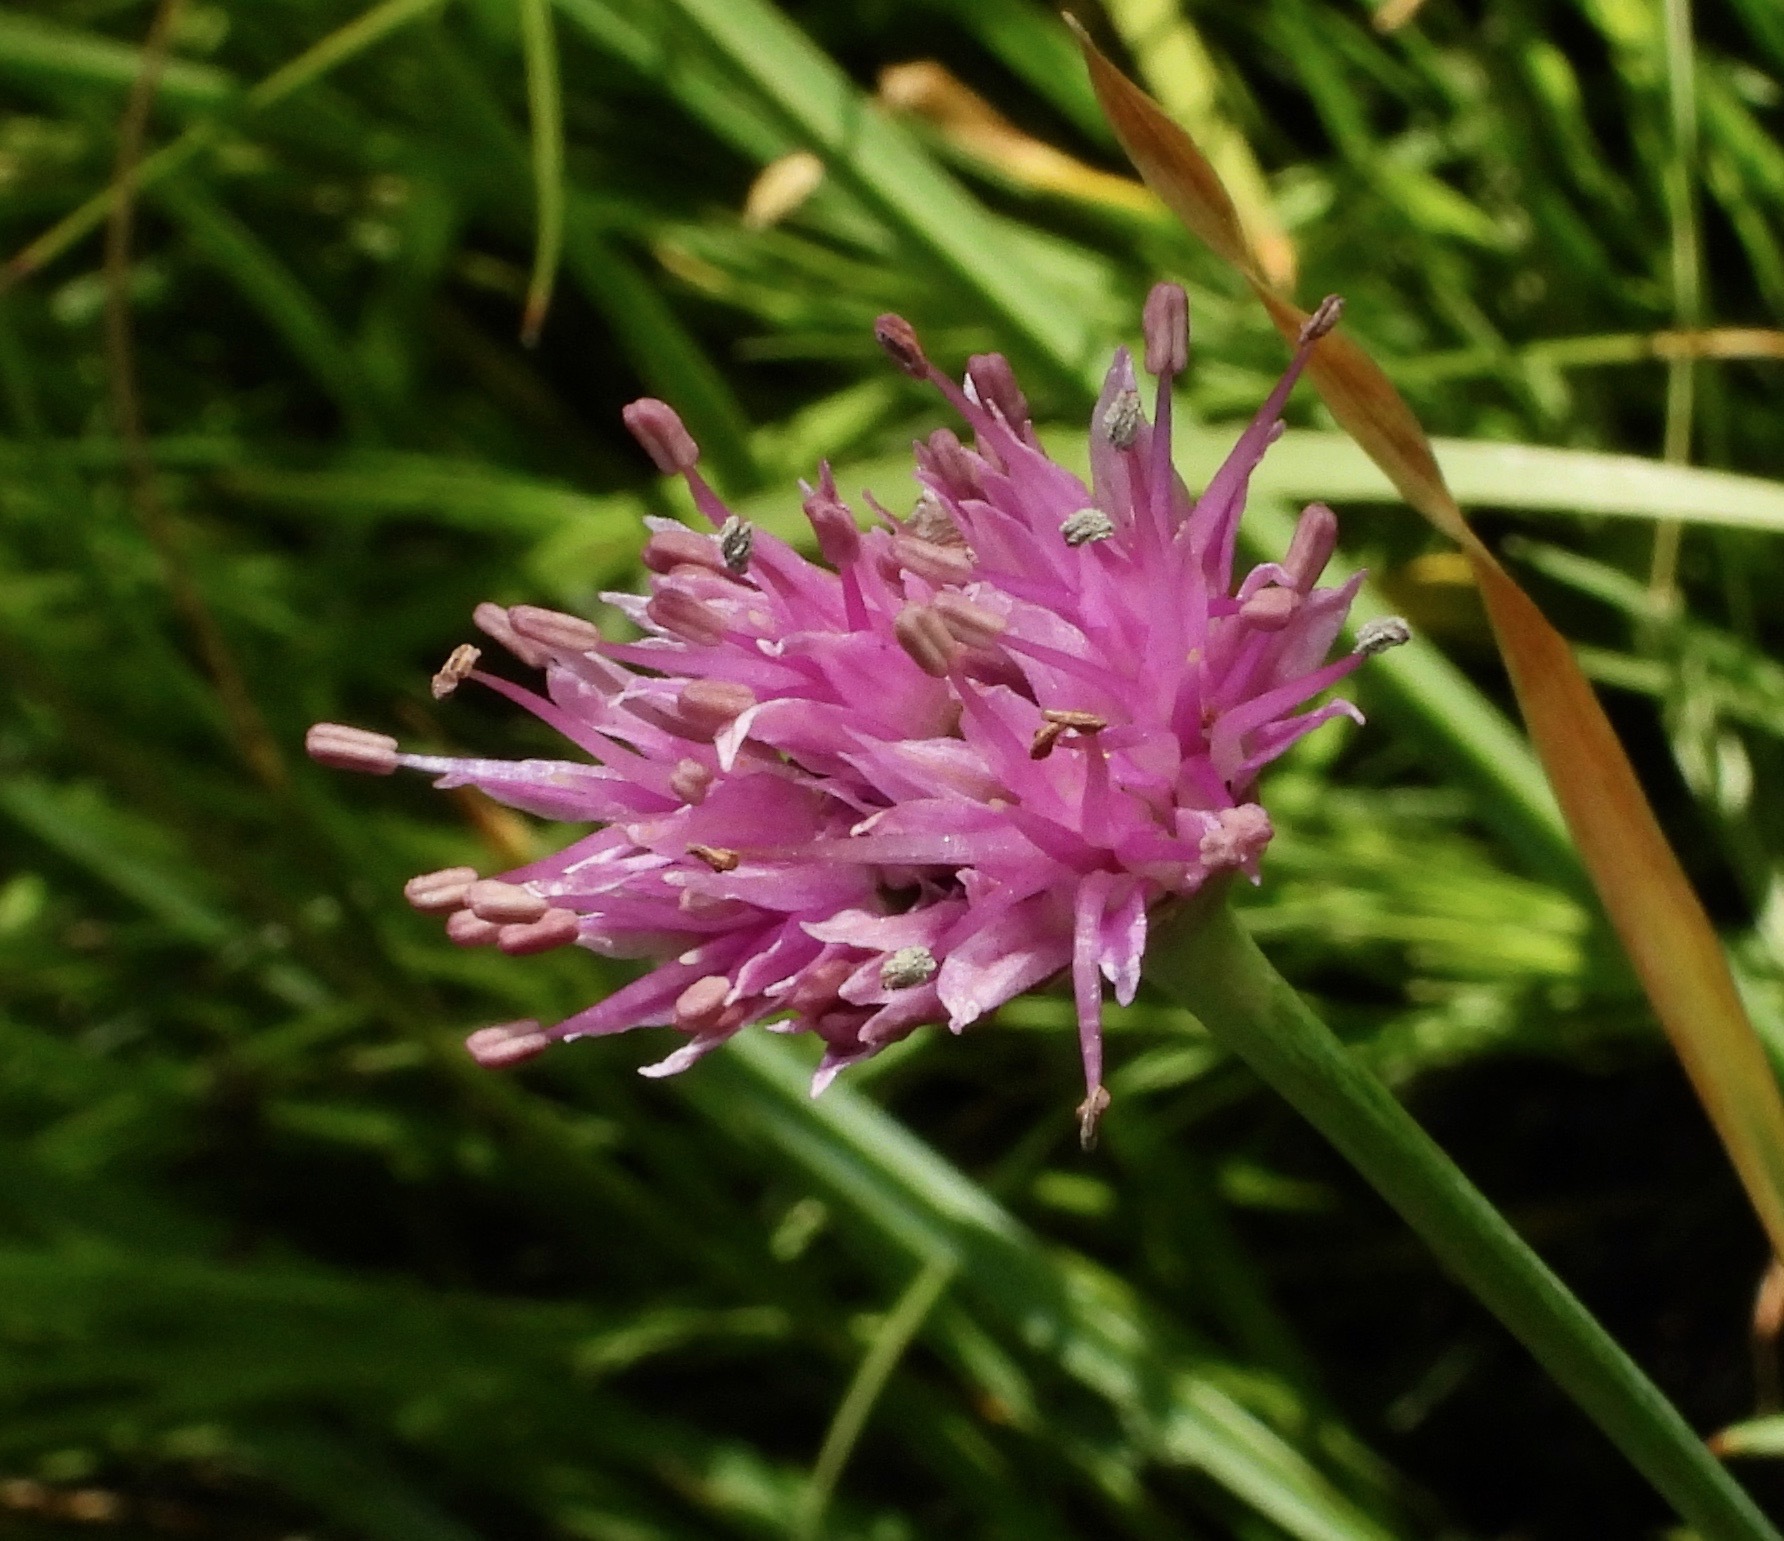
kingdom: Plantae
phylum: Tracheophyta
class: Liliopsida
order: Asparagales
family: Amaryllidaceae
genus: Allium
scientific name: Allium validum
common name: Pacific mountain onion
